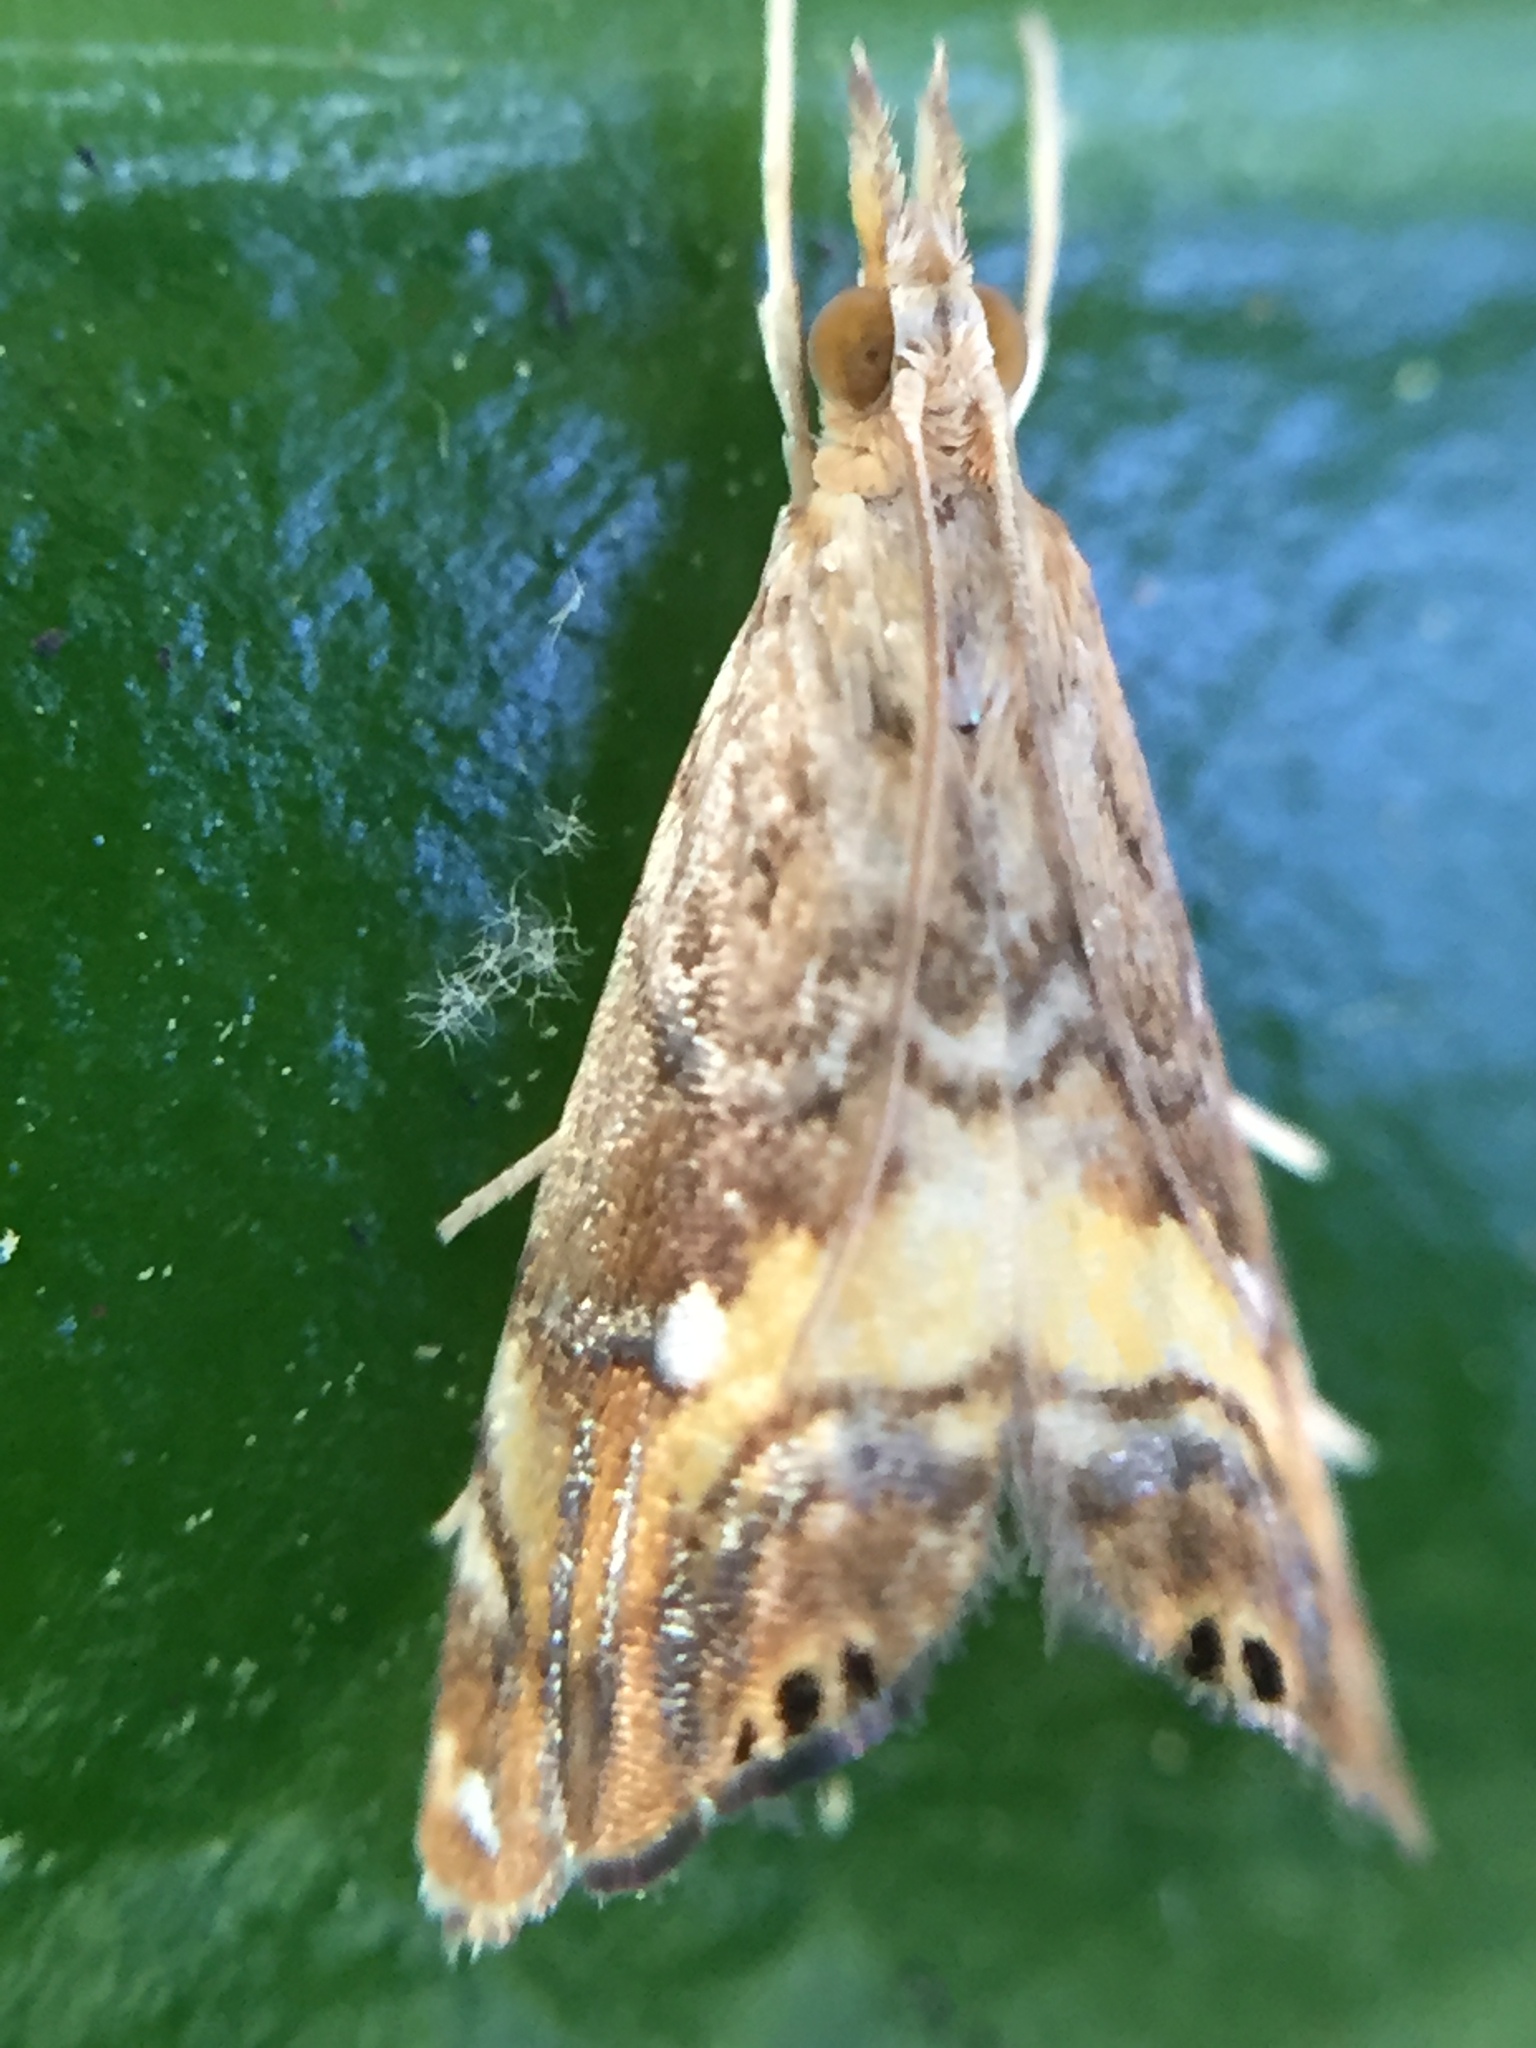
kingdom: Animalia
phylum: Arthropoda
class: Insecta
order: Lepidoptera
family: Crambidae
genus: Glaucocharis
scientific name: Glaucocharis chrysochyta
